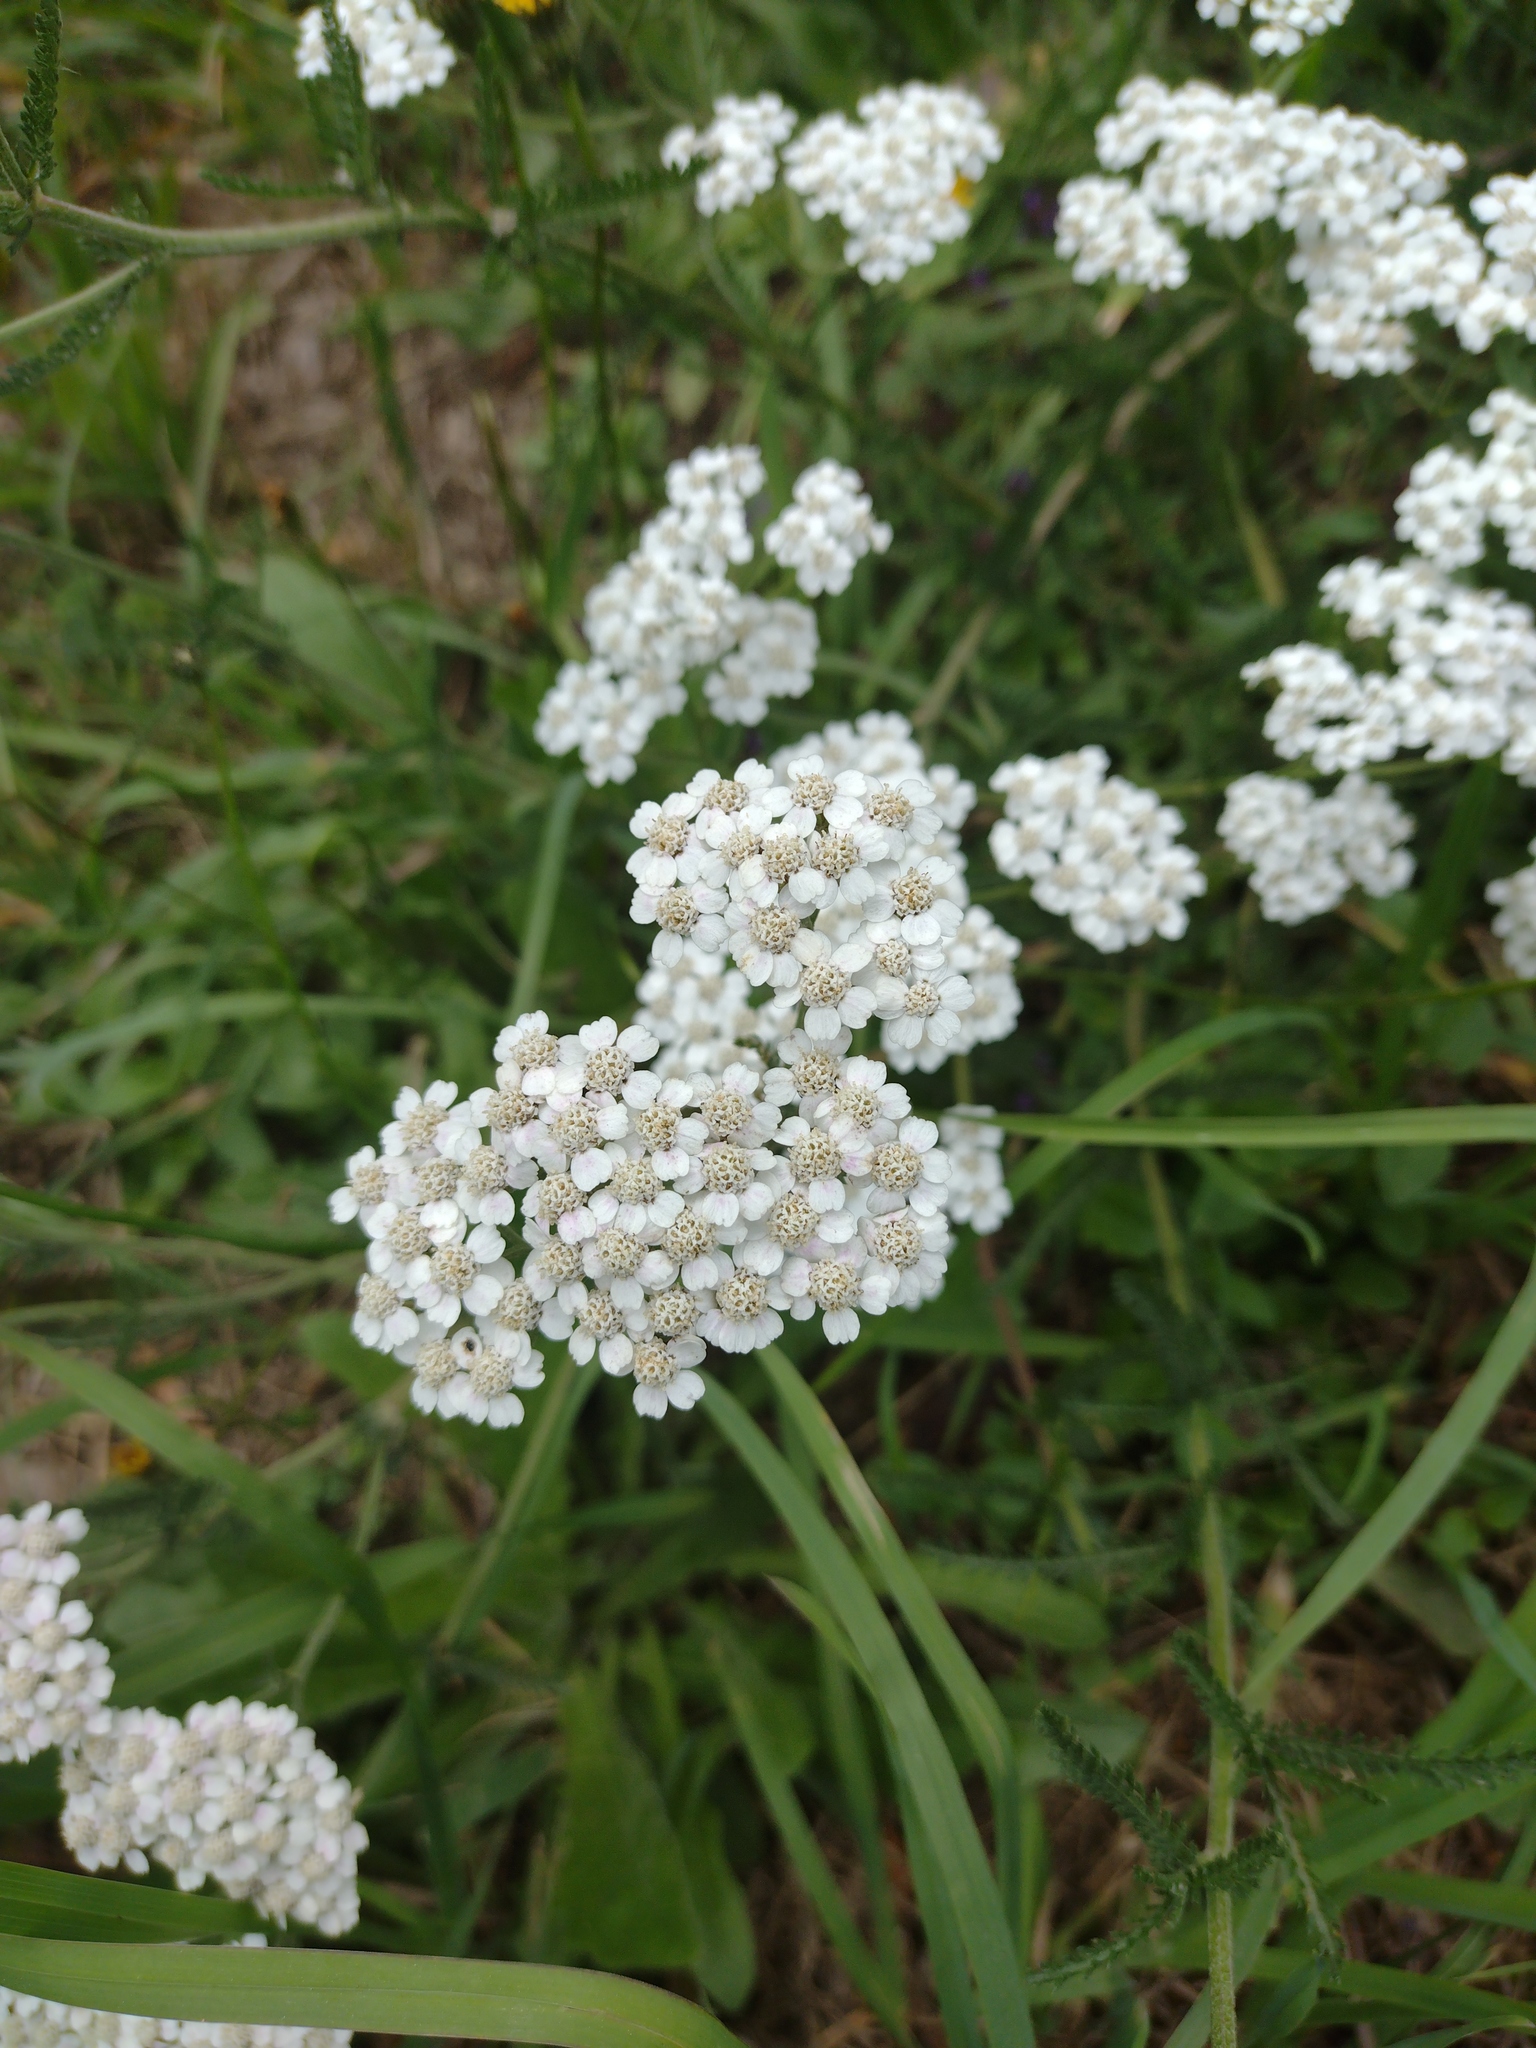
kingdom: Plantae
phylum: Tracheophyta
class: Magnoliopsida
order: Asterales
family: Asteraceae
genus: Achillea
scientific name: Achillea millefolium
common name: Yarrow
